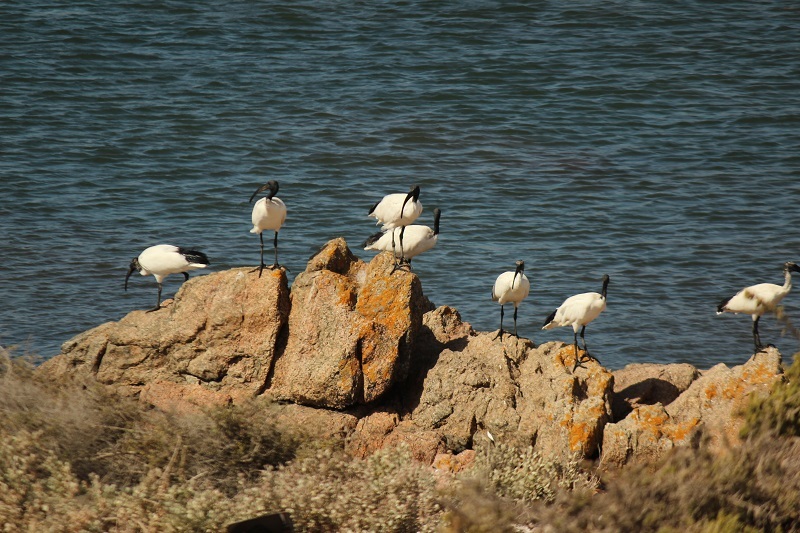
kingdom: Animalia
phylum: Chordata
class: Aves
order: Pelecaniformes
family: Threskiornithidae
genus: Threskiornis
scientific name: Threskiornis aethiopicus
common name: Sacred ibis
